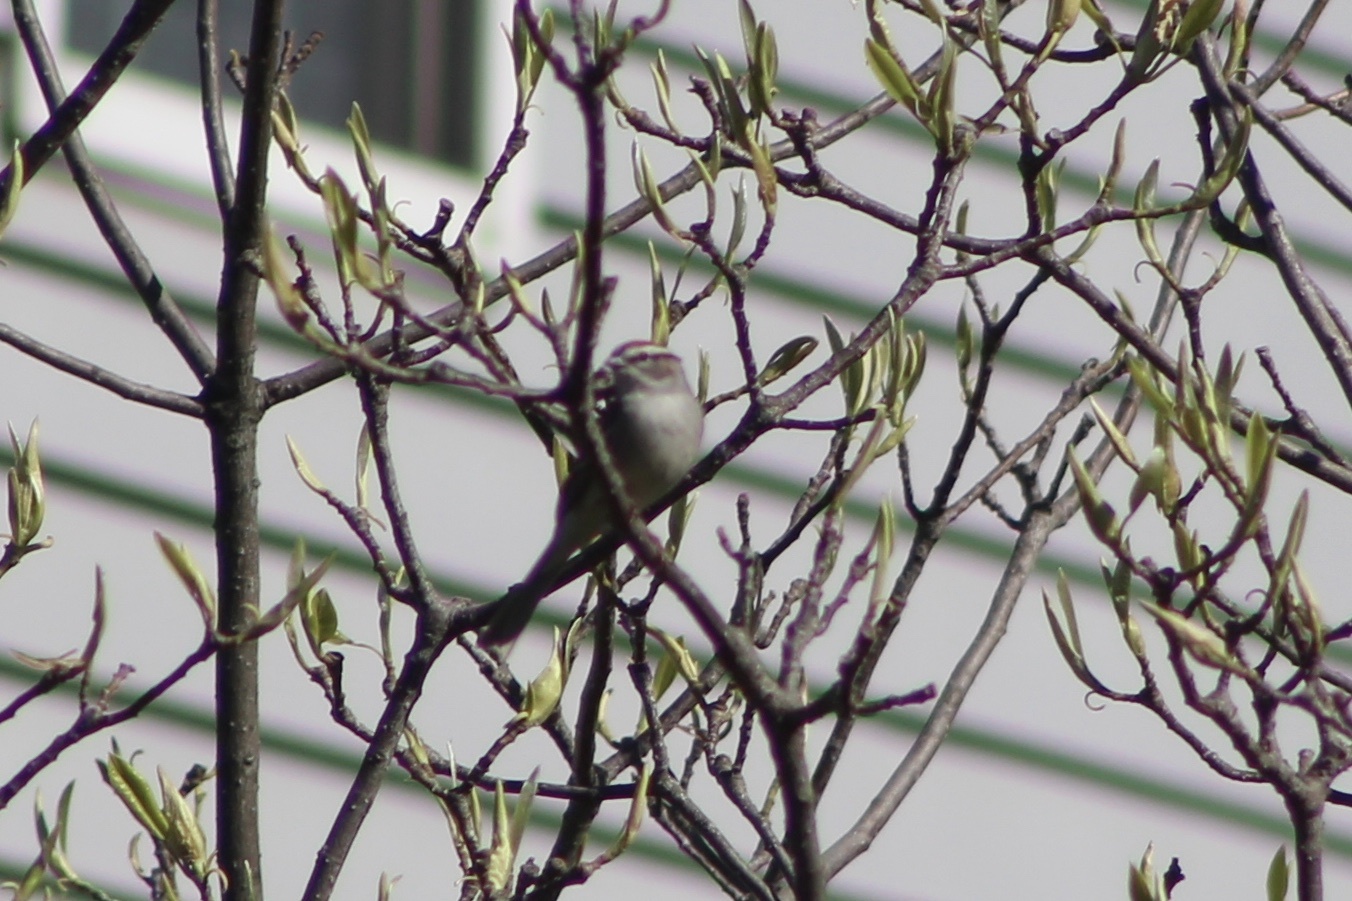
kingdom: Animalia
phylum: Chordata
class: Aves
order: Passeriformes
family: Passerellidae
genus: Spizella
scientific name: Spizella passerina
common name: Chipping sparrow
